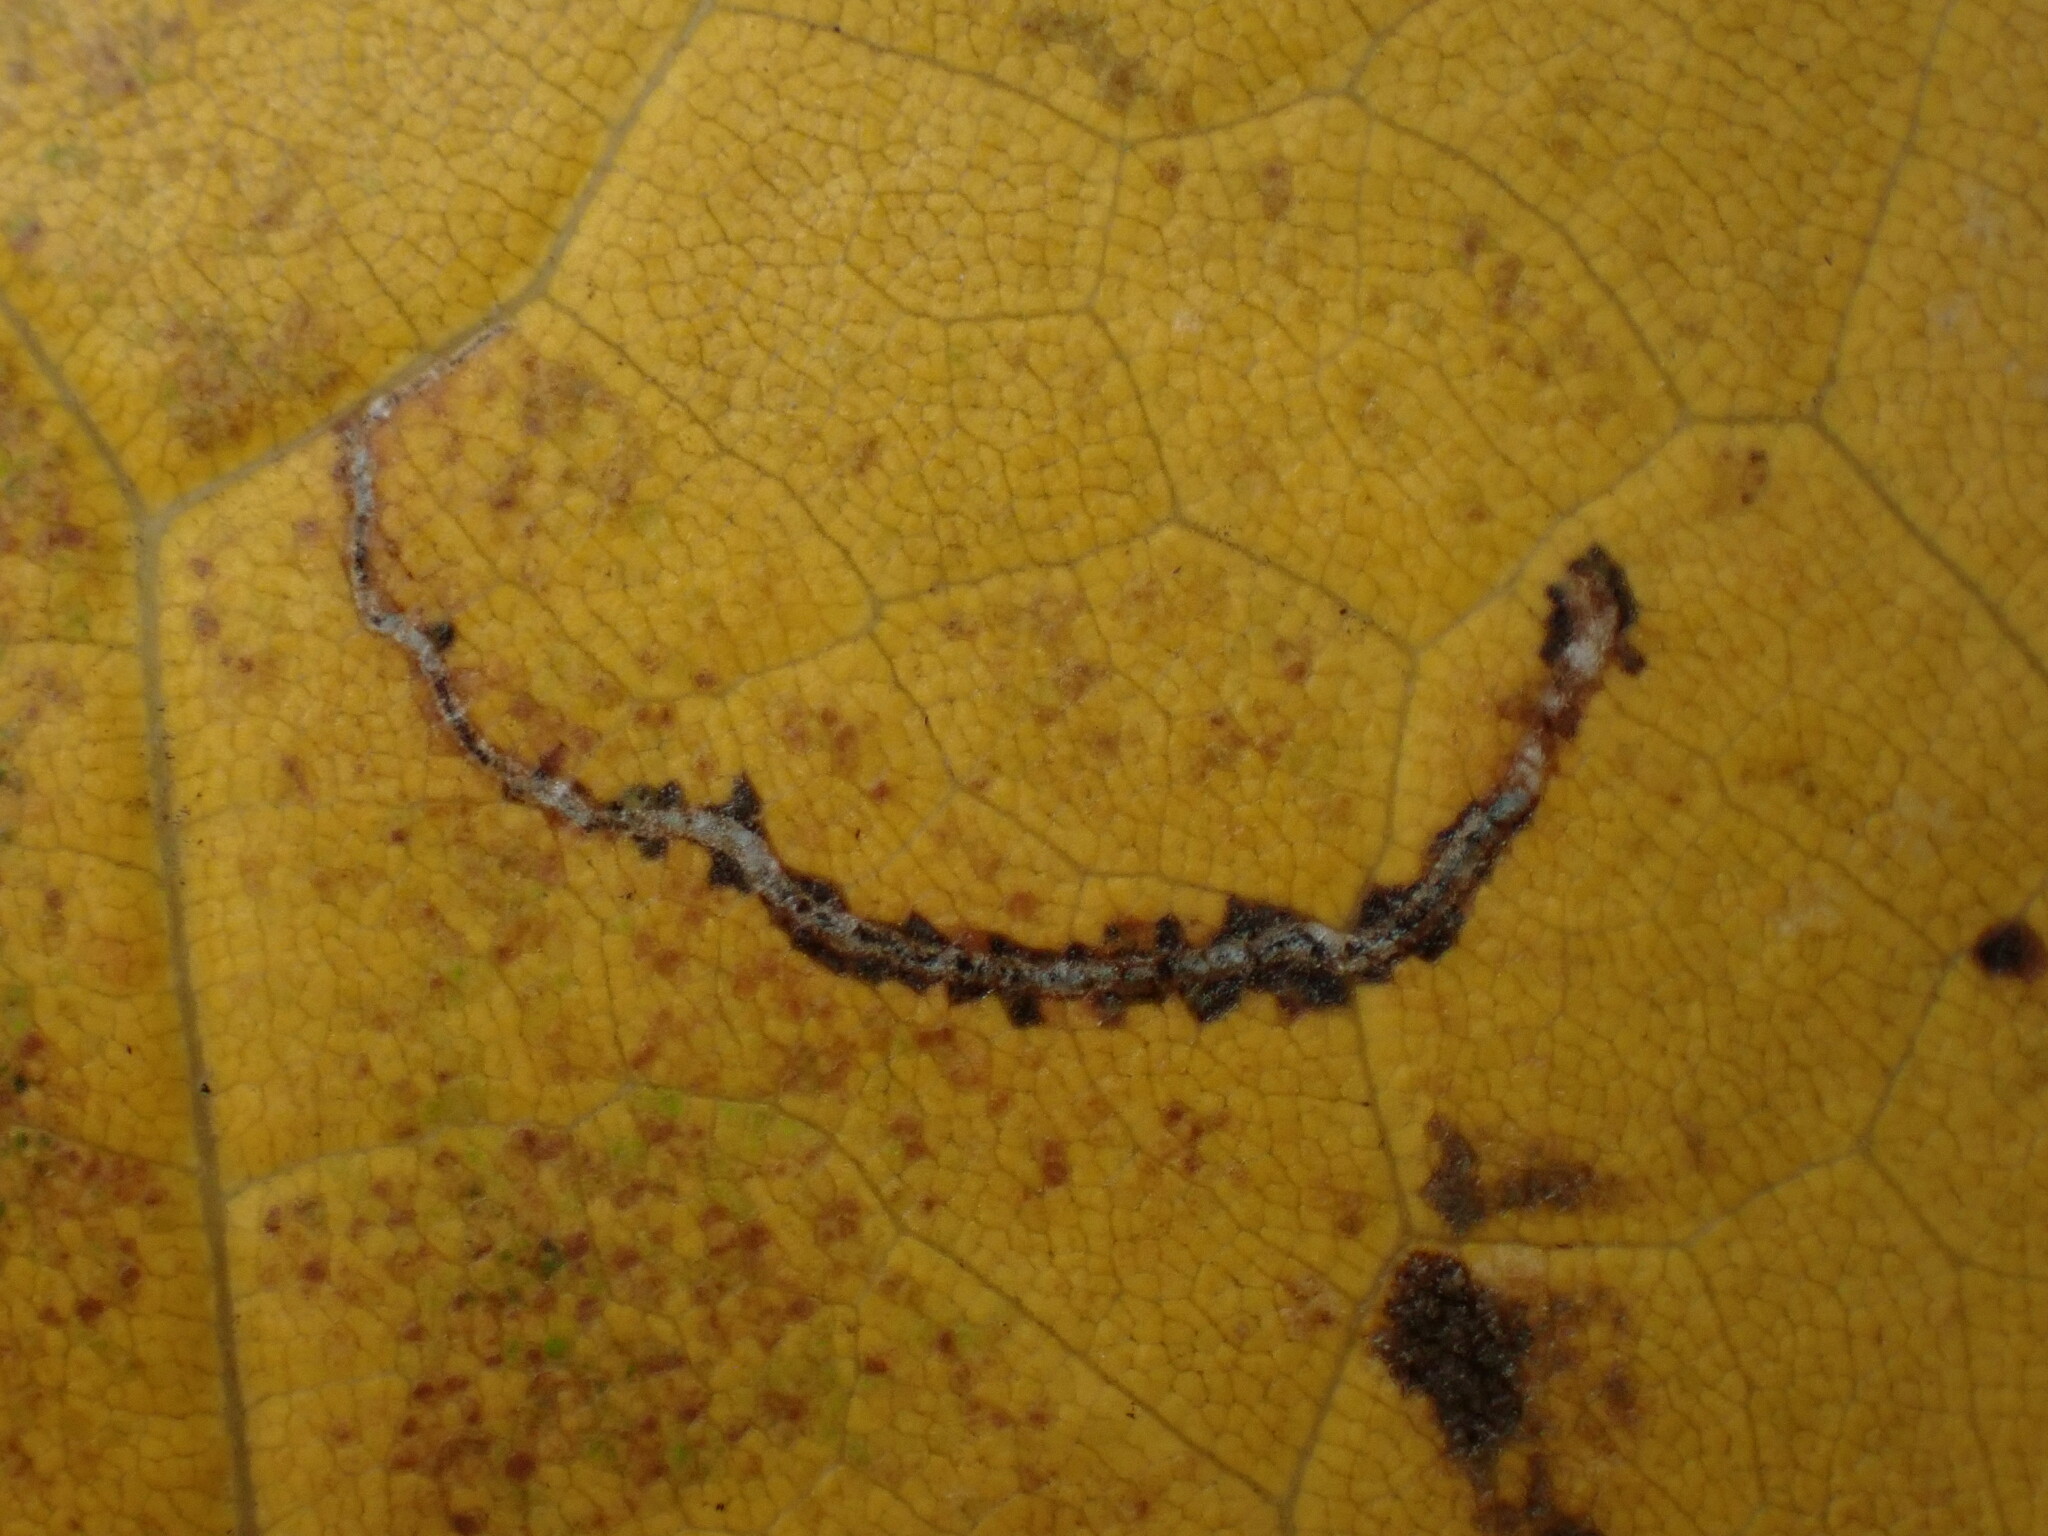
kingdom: Animalia
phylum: Arthropoda
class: Insecta
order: Lepidoptera
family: Nepticulidae
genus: Glaucolepis
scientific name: Glaucolepis saccharella
